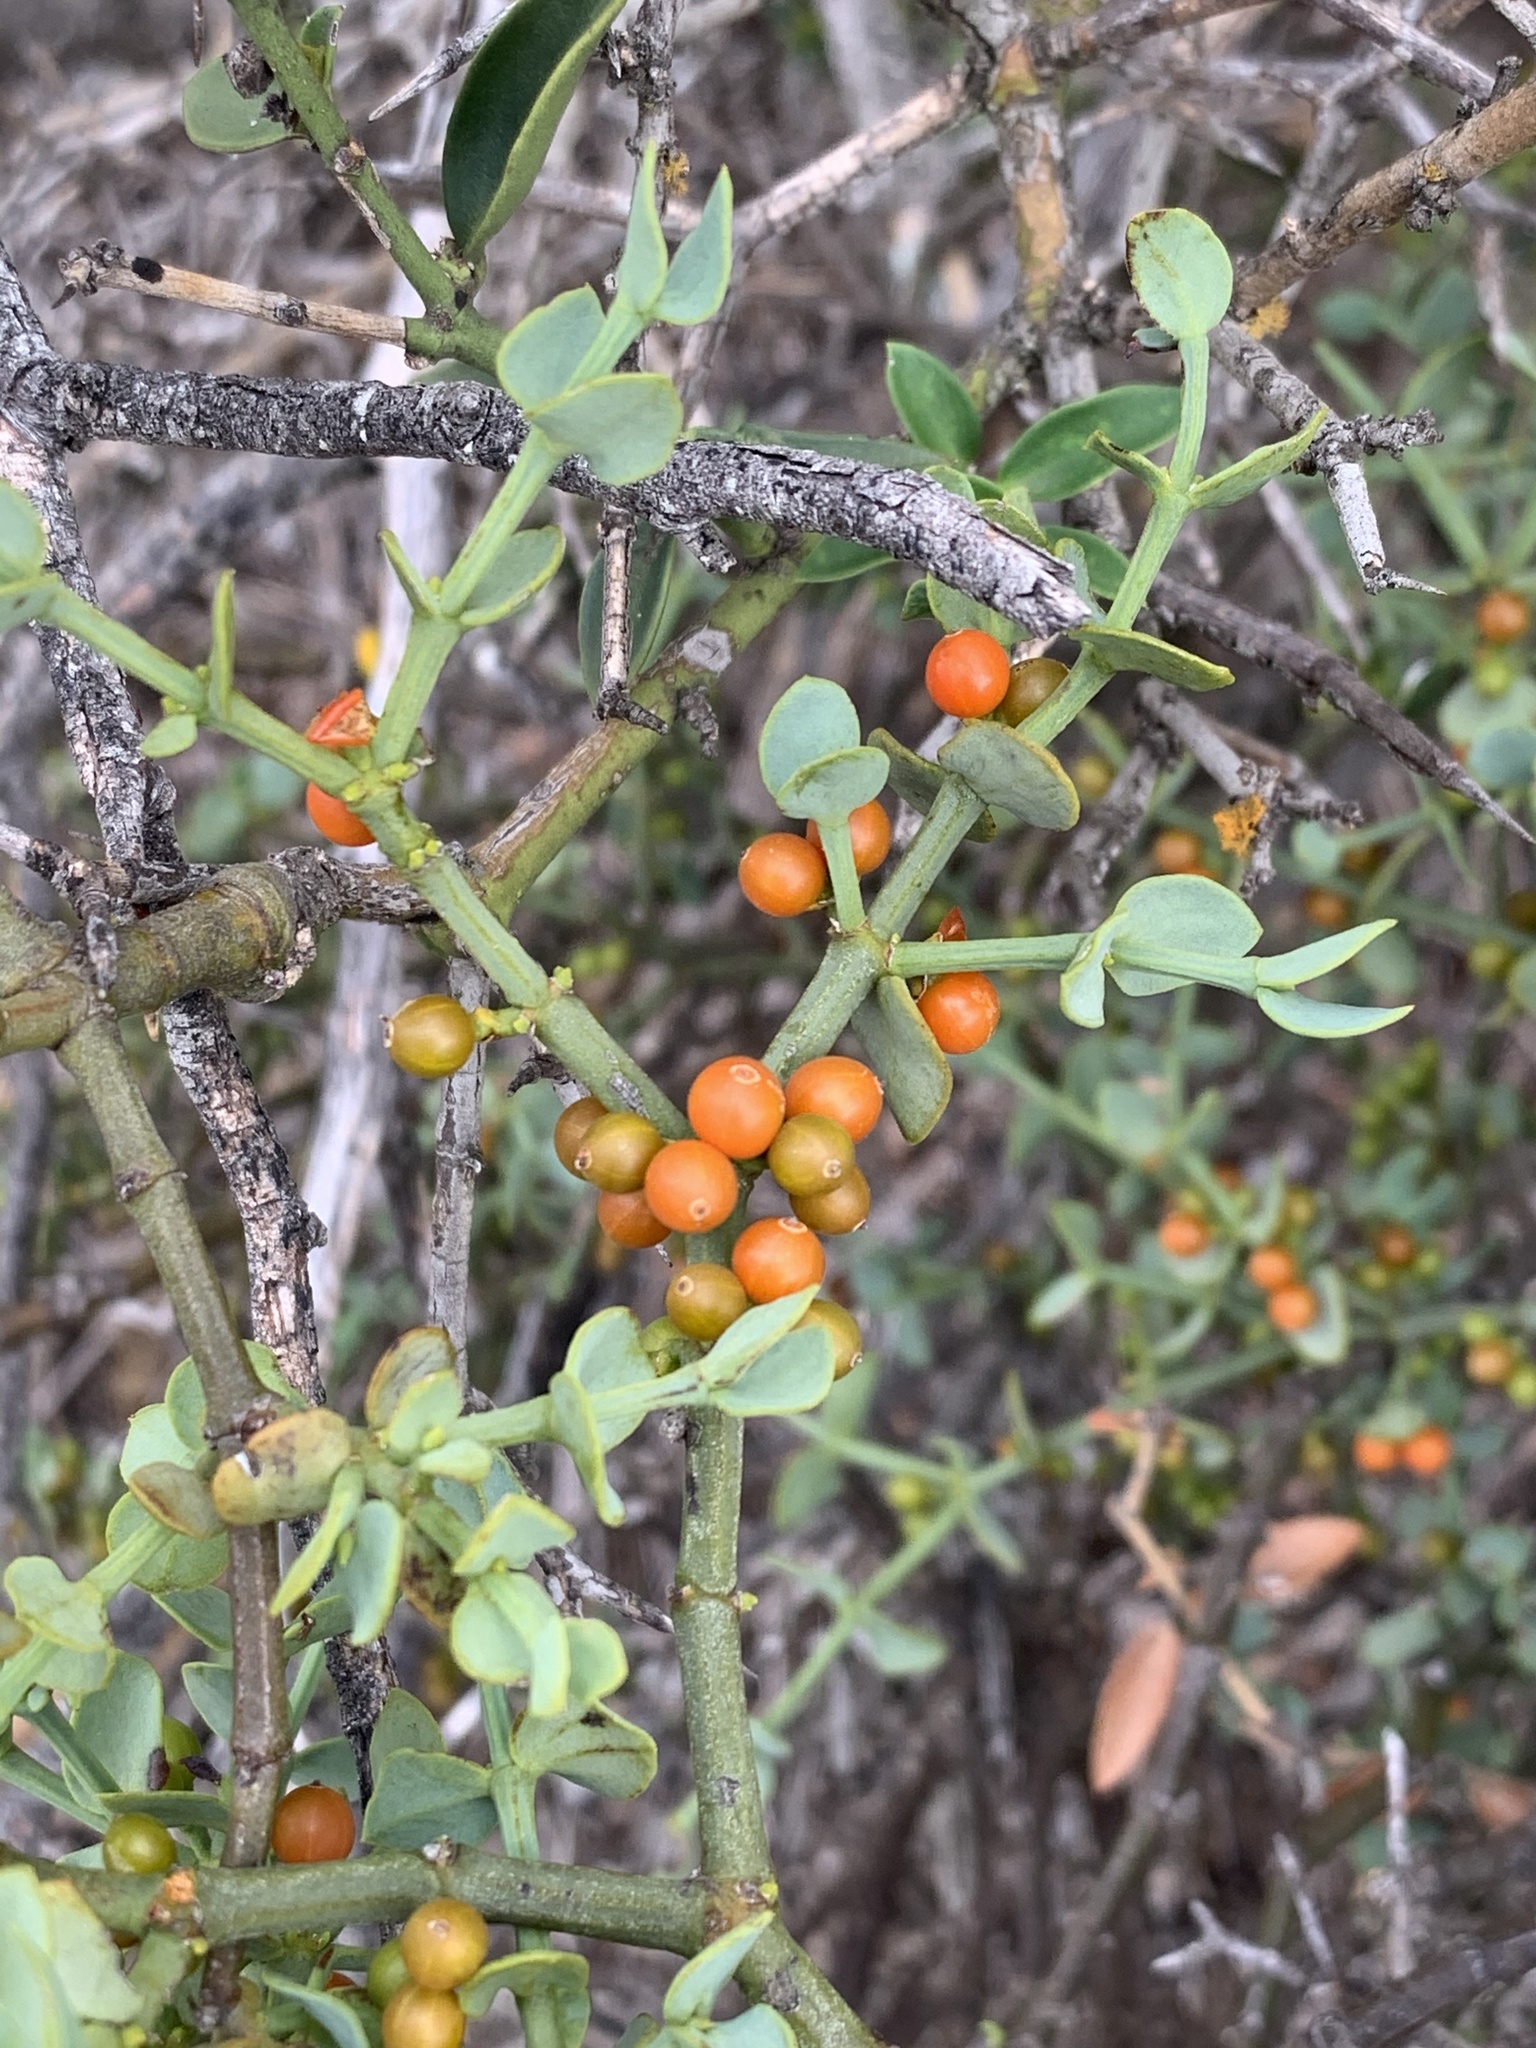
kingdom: Plantae
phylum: Tracheophyta
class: Magnoliopsida
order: Santalales
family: Viscaceae
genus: Viscum
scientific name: Viscum rotundifolium
